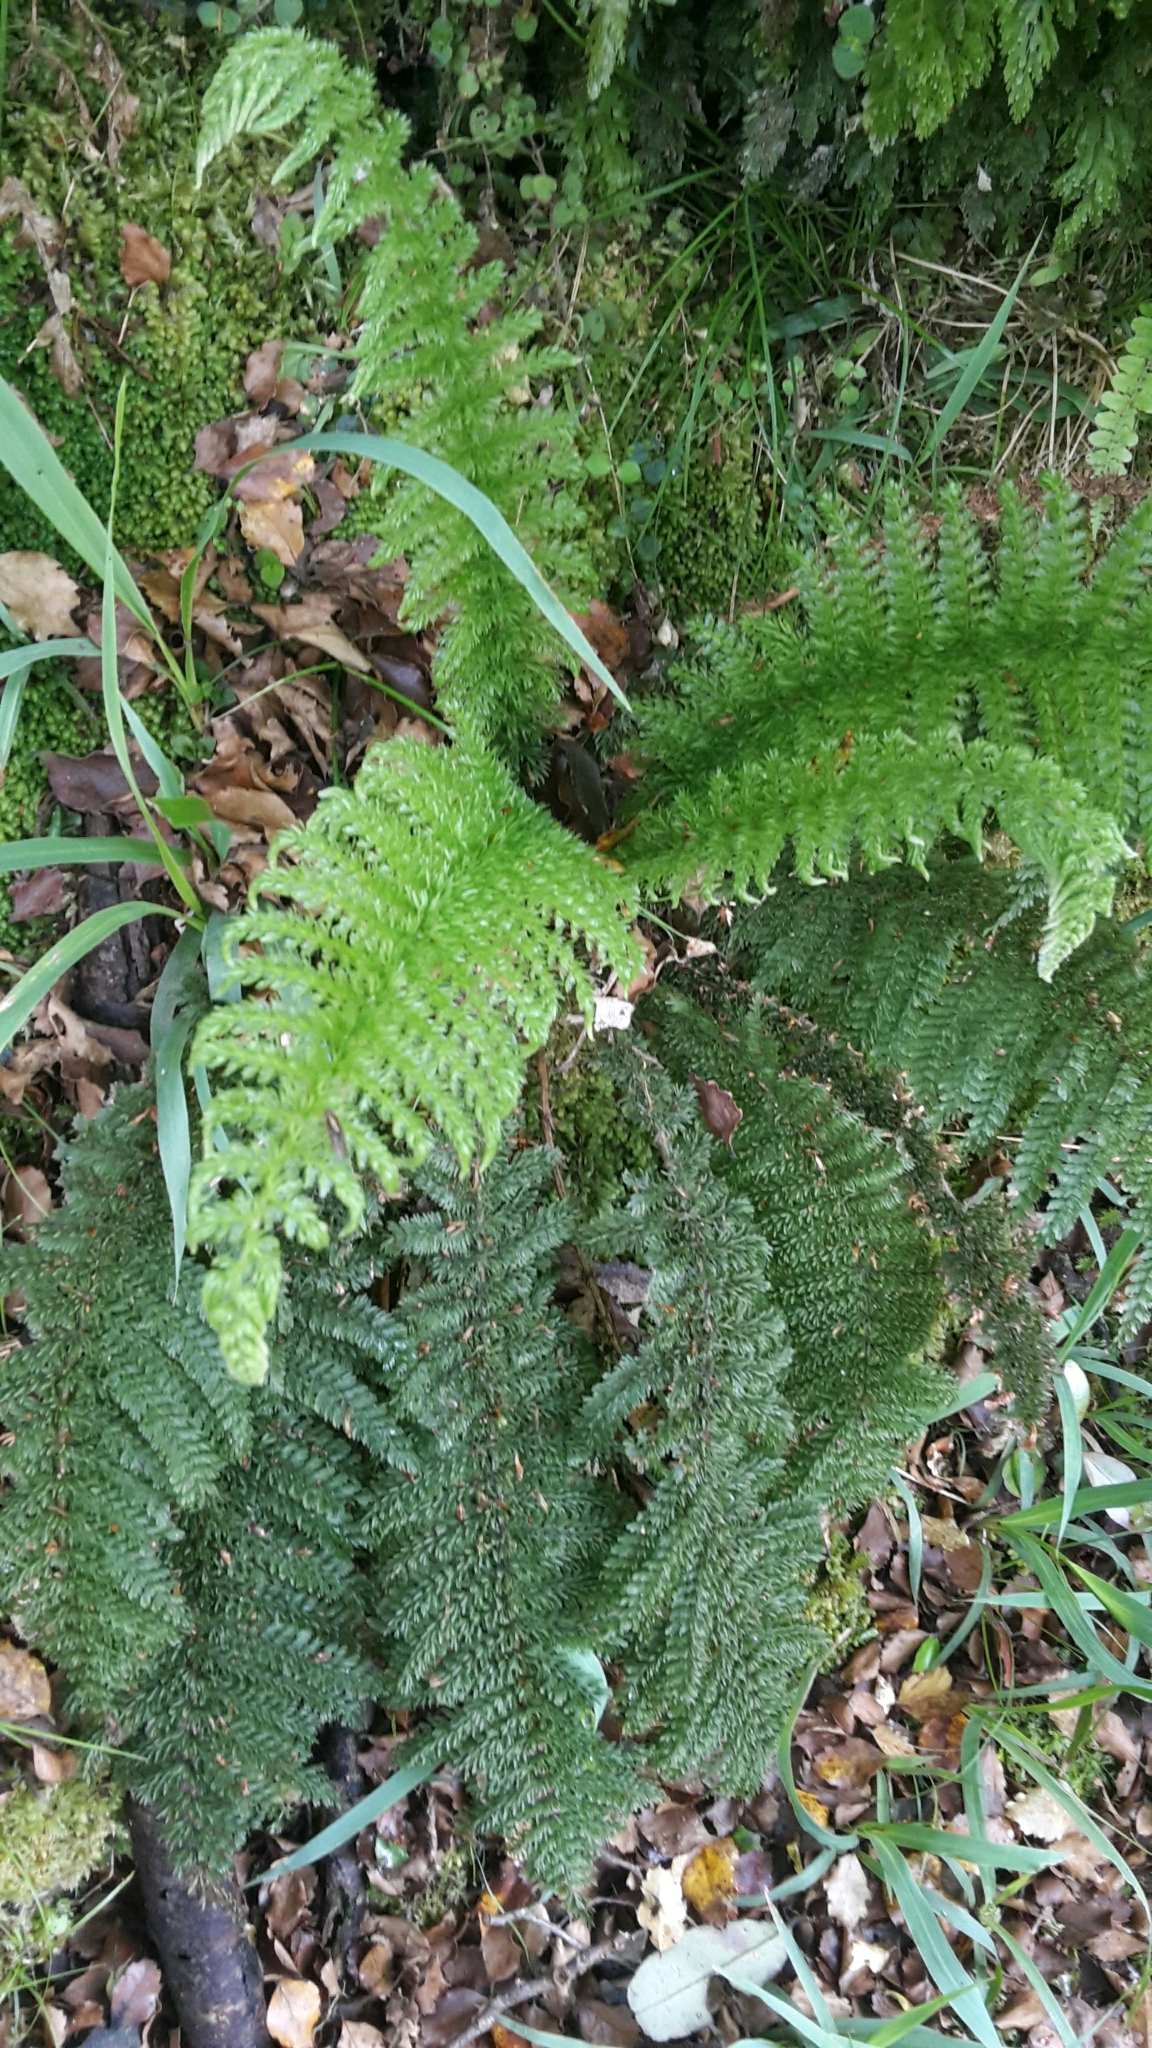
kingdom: Plantae
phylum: Tracheophyta
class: Polypodiopsida
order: Osmundales
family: Osmundaceae
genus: Leptopteris
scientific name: Leptopteris superba
